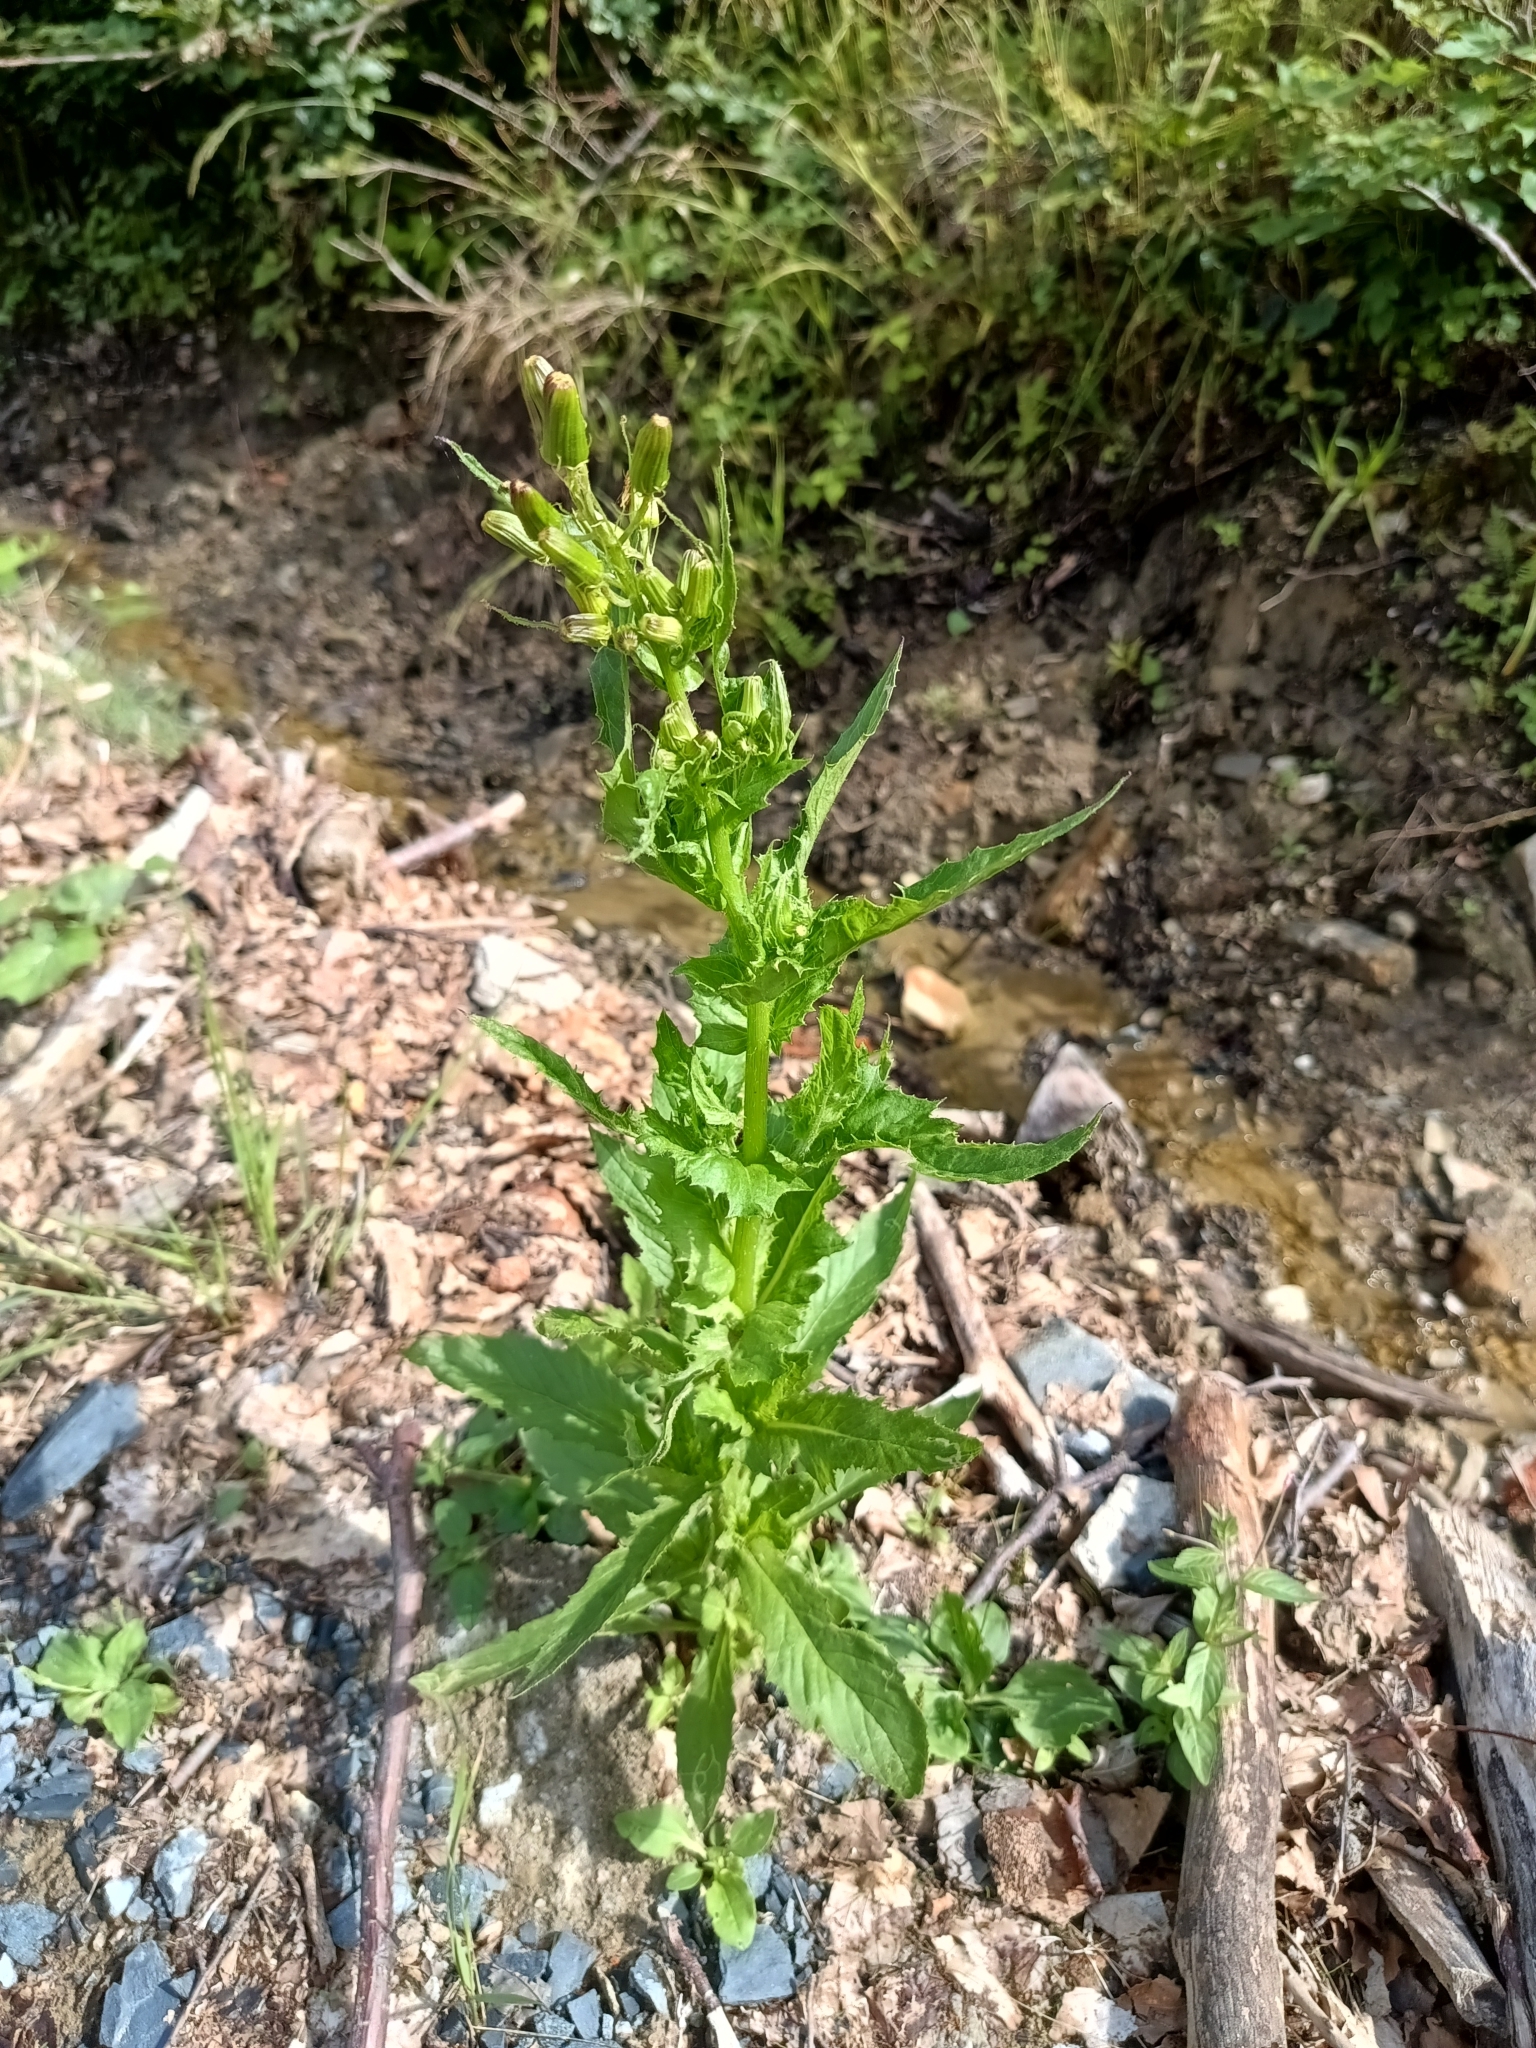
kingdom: Plantae
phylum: Tracheophyta
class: Magnoliopsida
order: Asterales
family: Asteraceae
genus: Erechtites
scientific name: Erechtites hieraciifolius
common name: American burnweed
